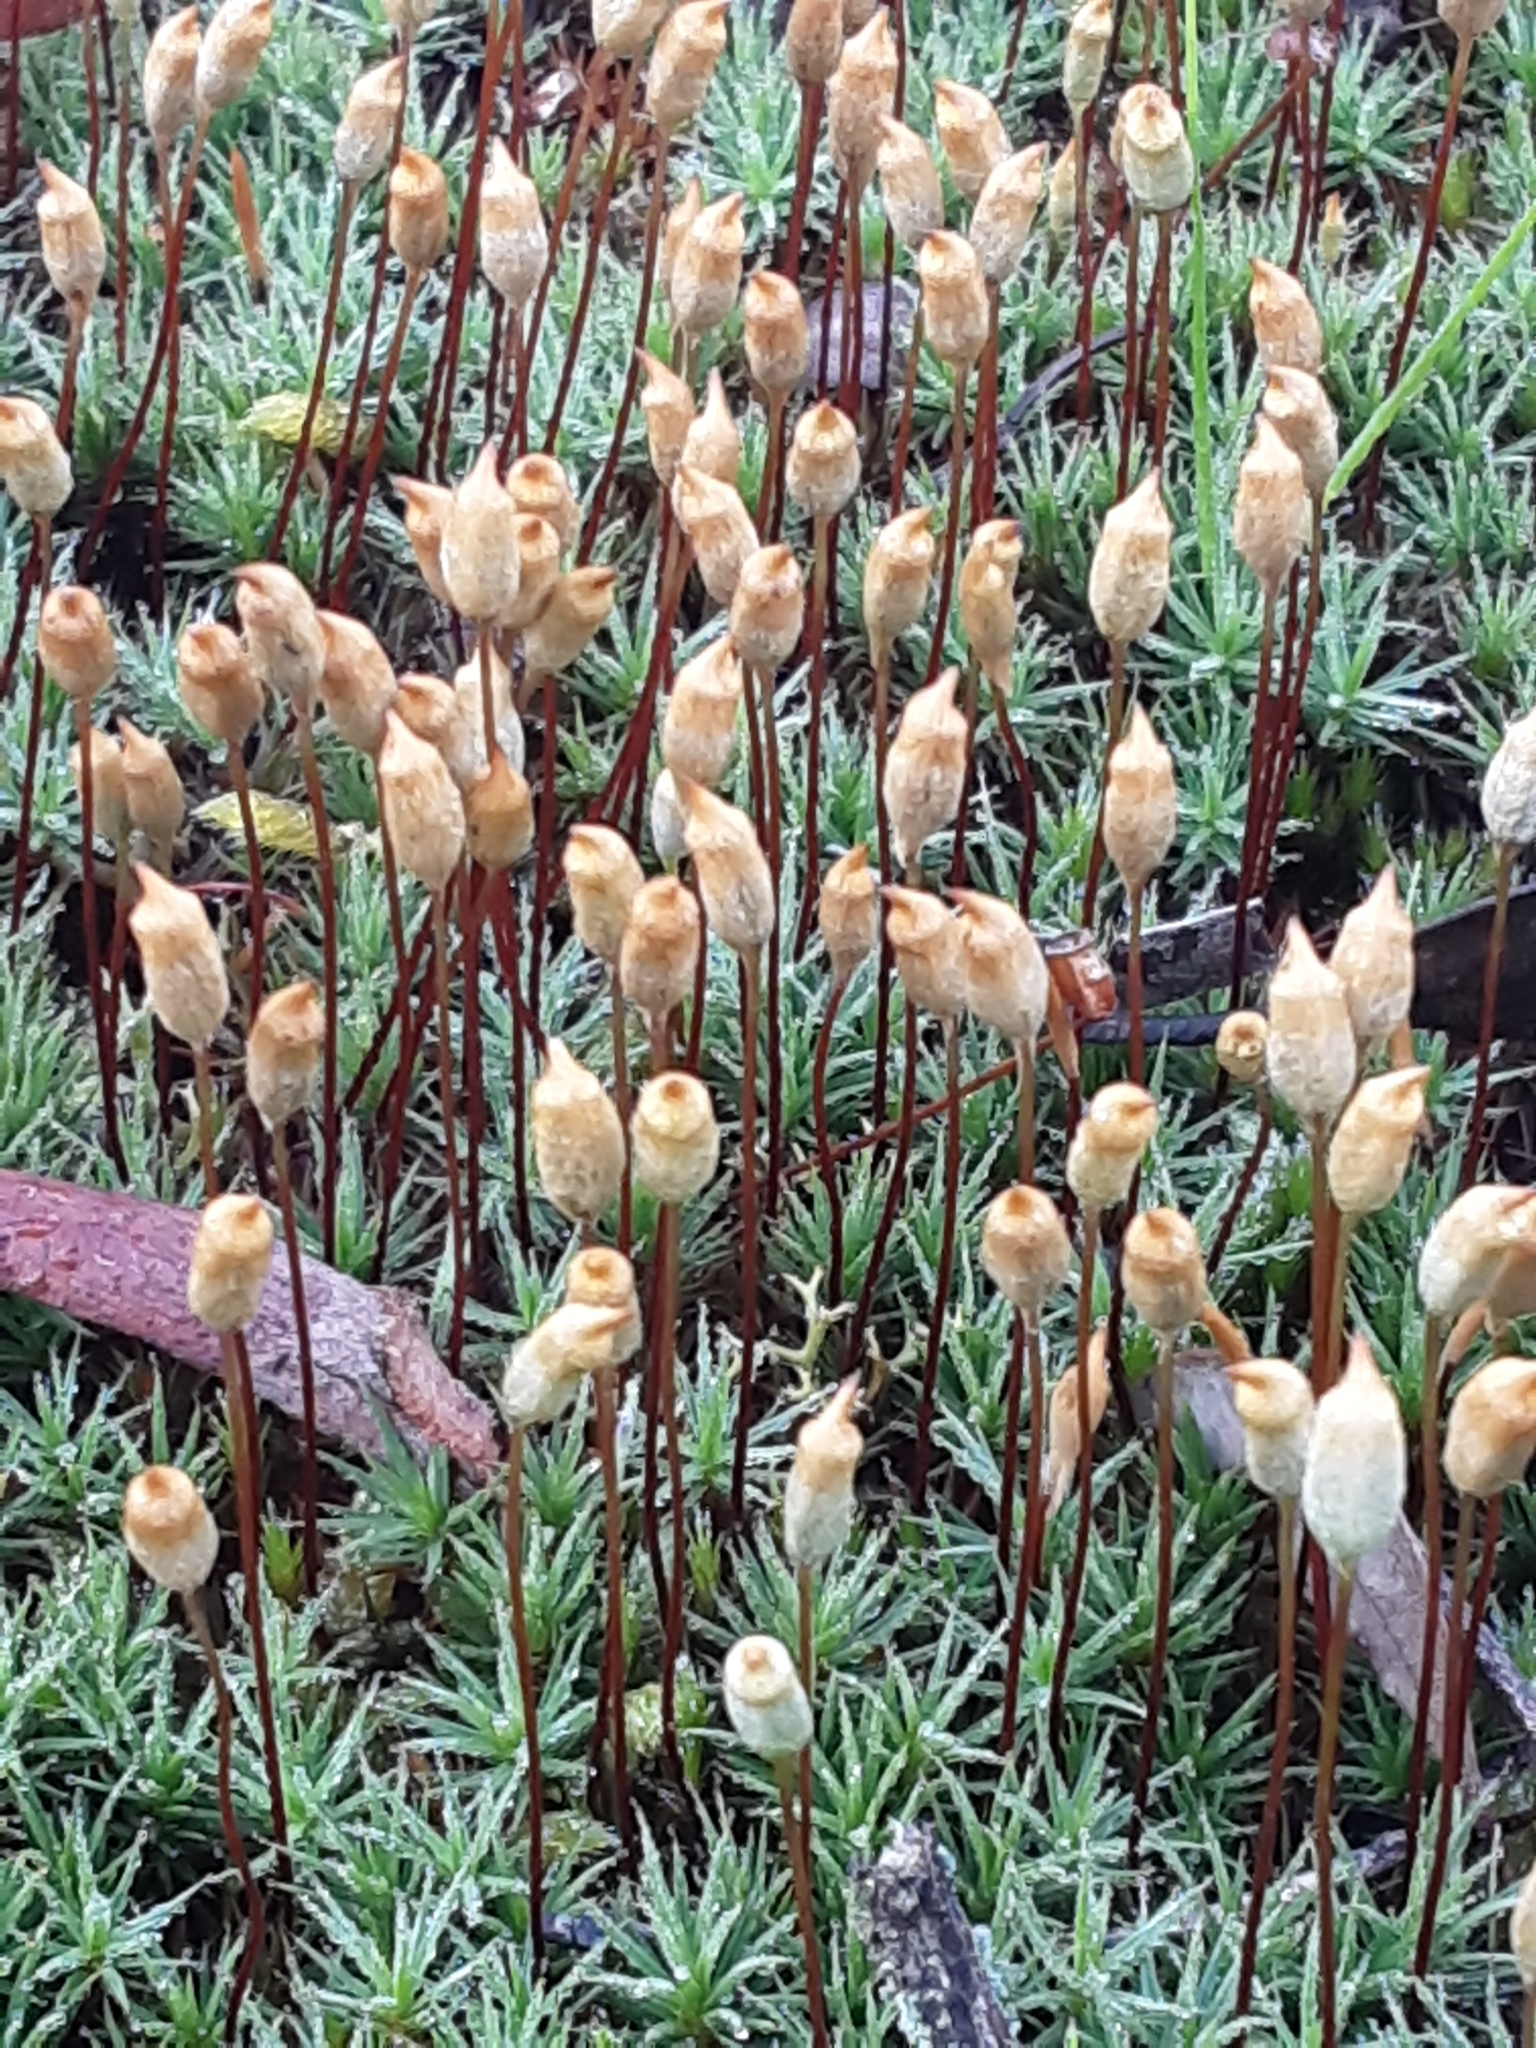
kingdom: Plantae
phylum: Bryophyta
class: Polytrichopsida
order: Polytrichales
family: Polytrichaceae
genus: Polytrichum
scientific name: Polytrichum juniperinum
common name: Juniper haircap moss
